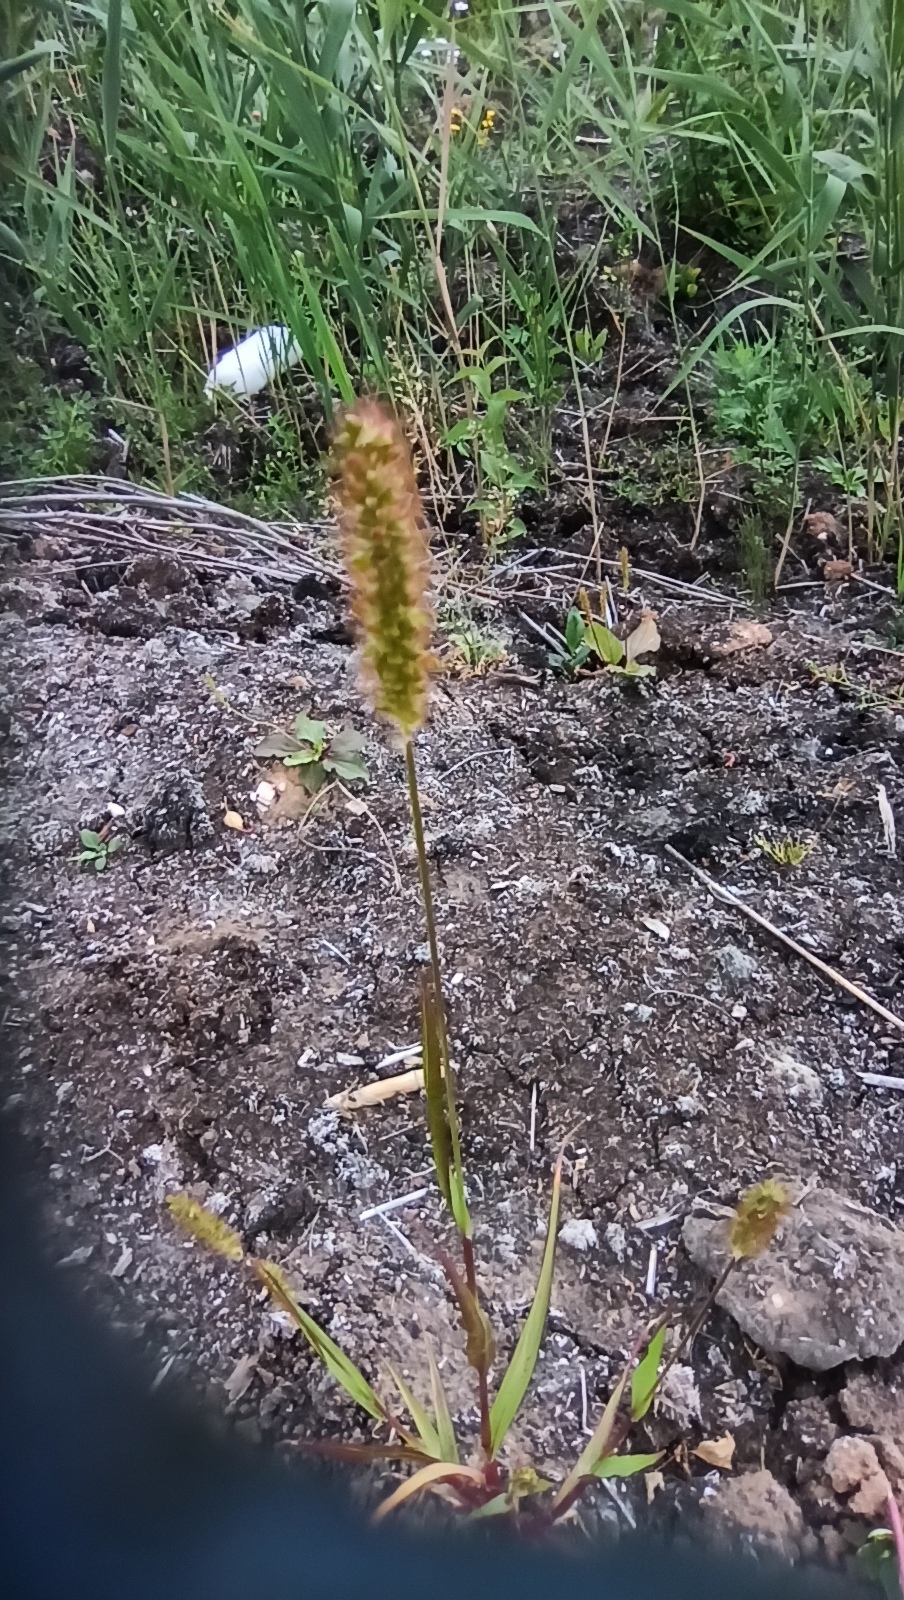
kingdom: Plantae
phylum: Tracheophyta
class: Liliopsida
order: Poales
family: Poaceae
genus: Setaria
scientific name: Setaria pumila
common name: Yellow bristle-grass
